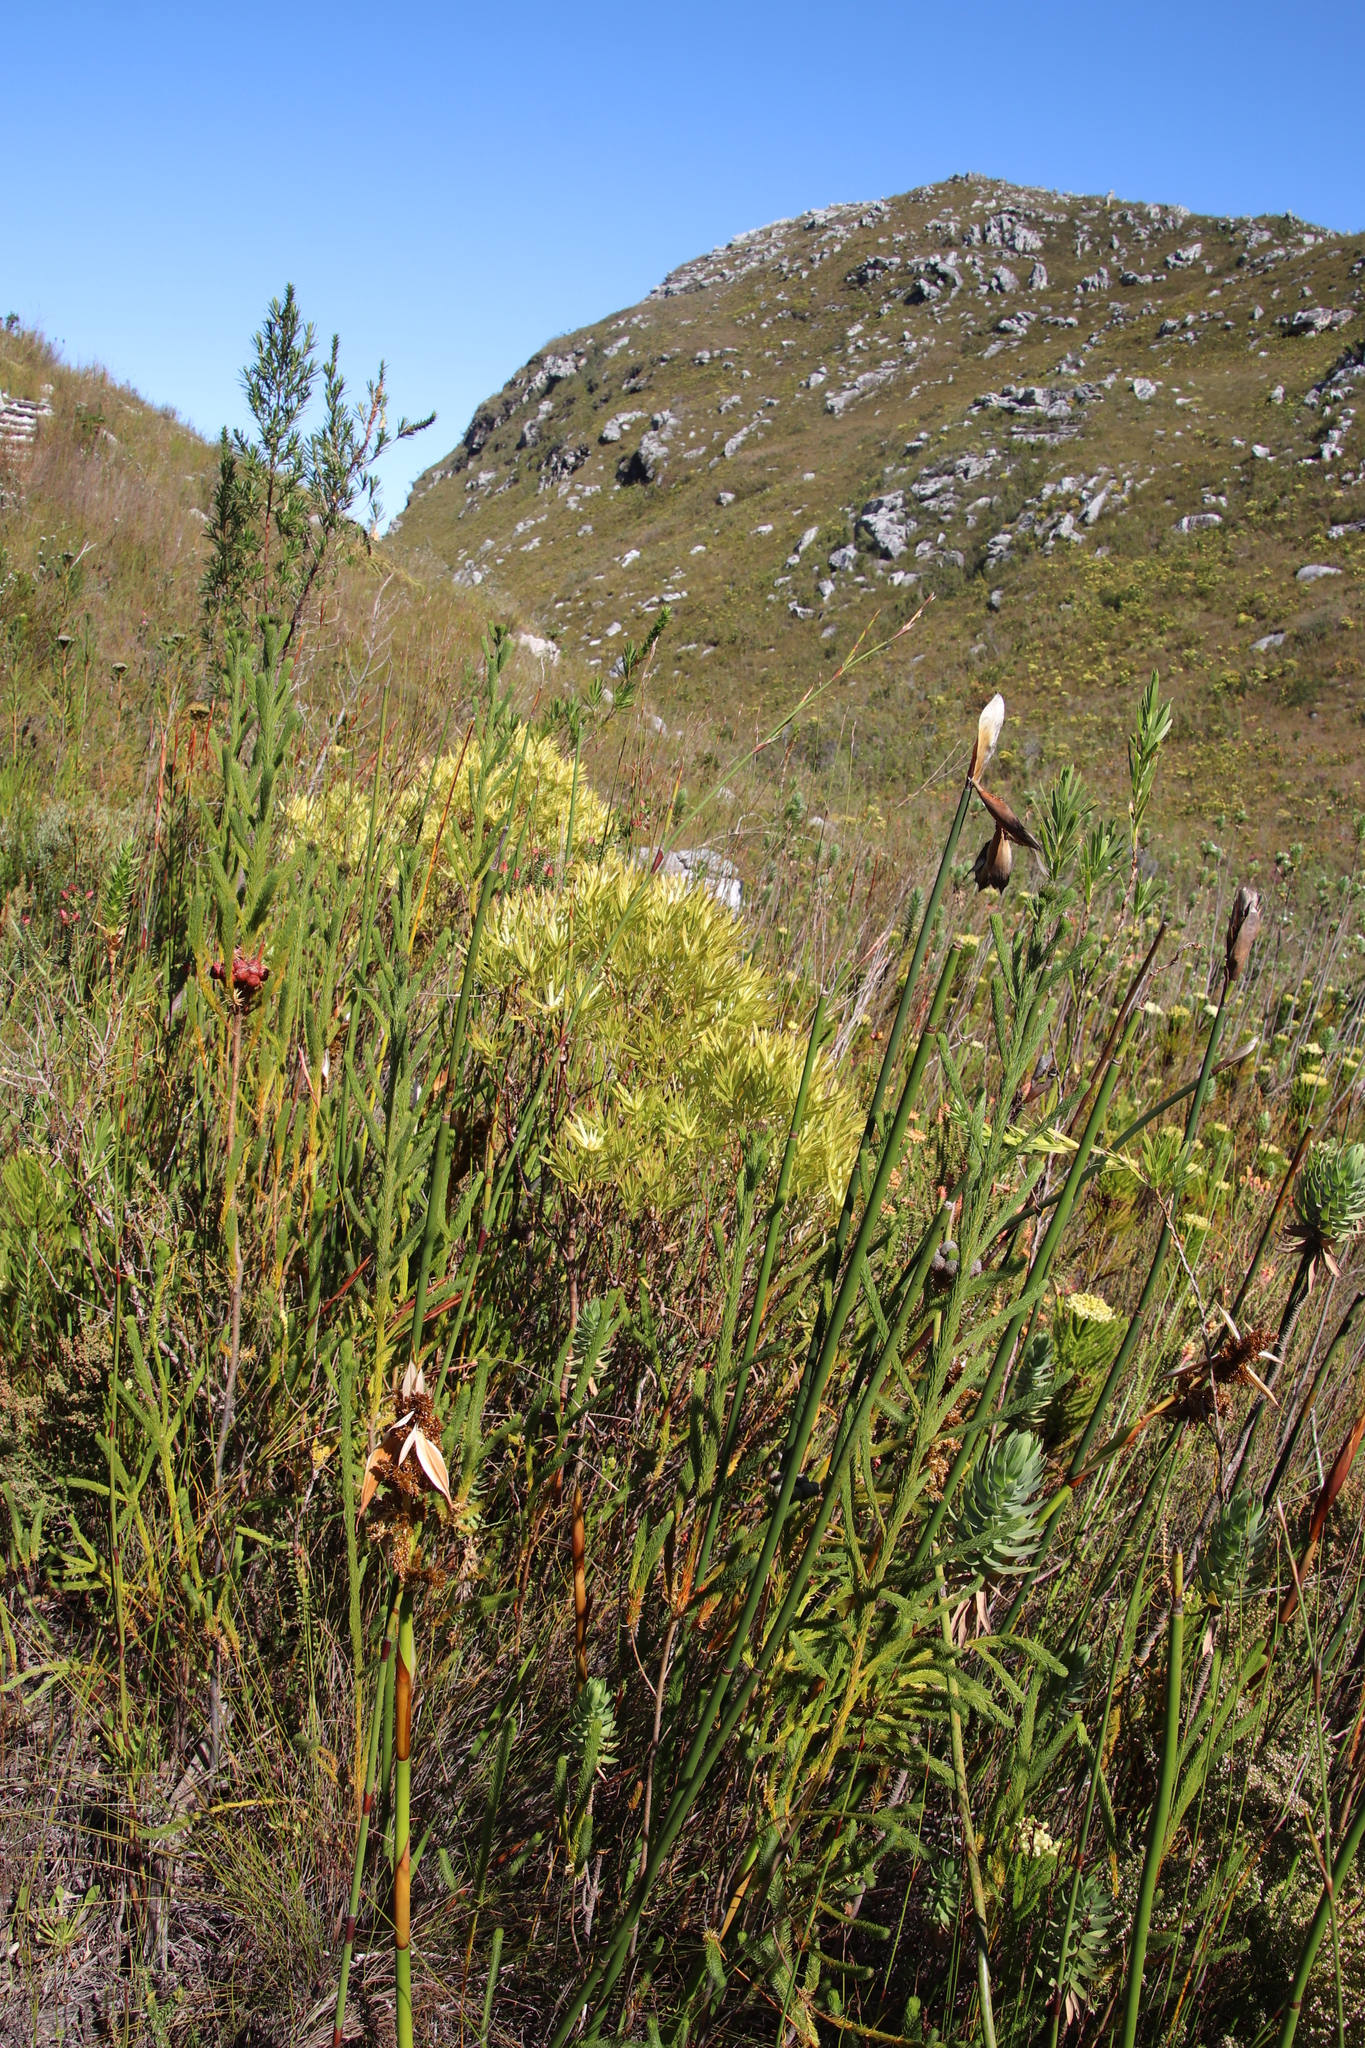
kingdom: Plantae
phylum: Tracheophyta
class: Magnoliopsida
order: Proteales
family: Proteaceae
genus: Leucadendron
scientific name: Leucadendron xanthoconus
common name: Sickle-leaf conebush
